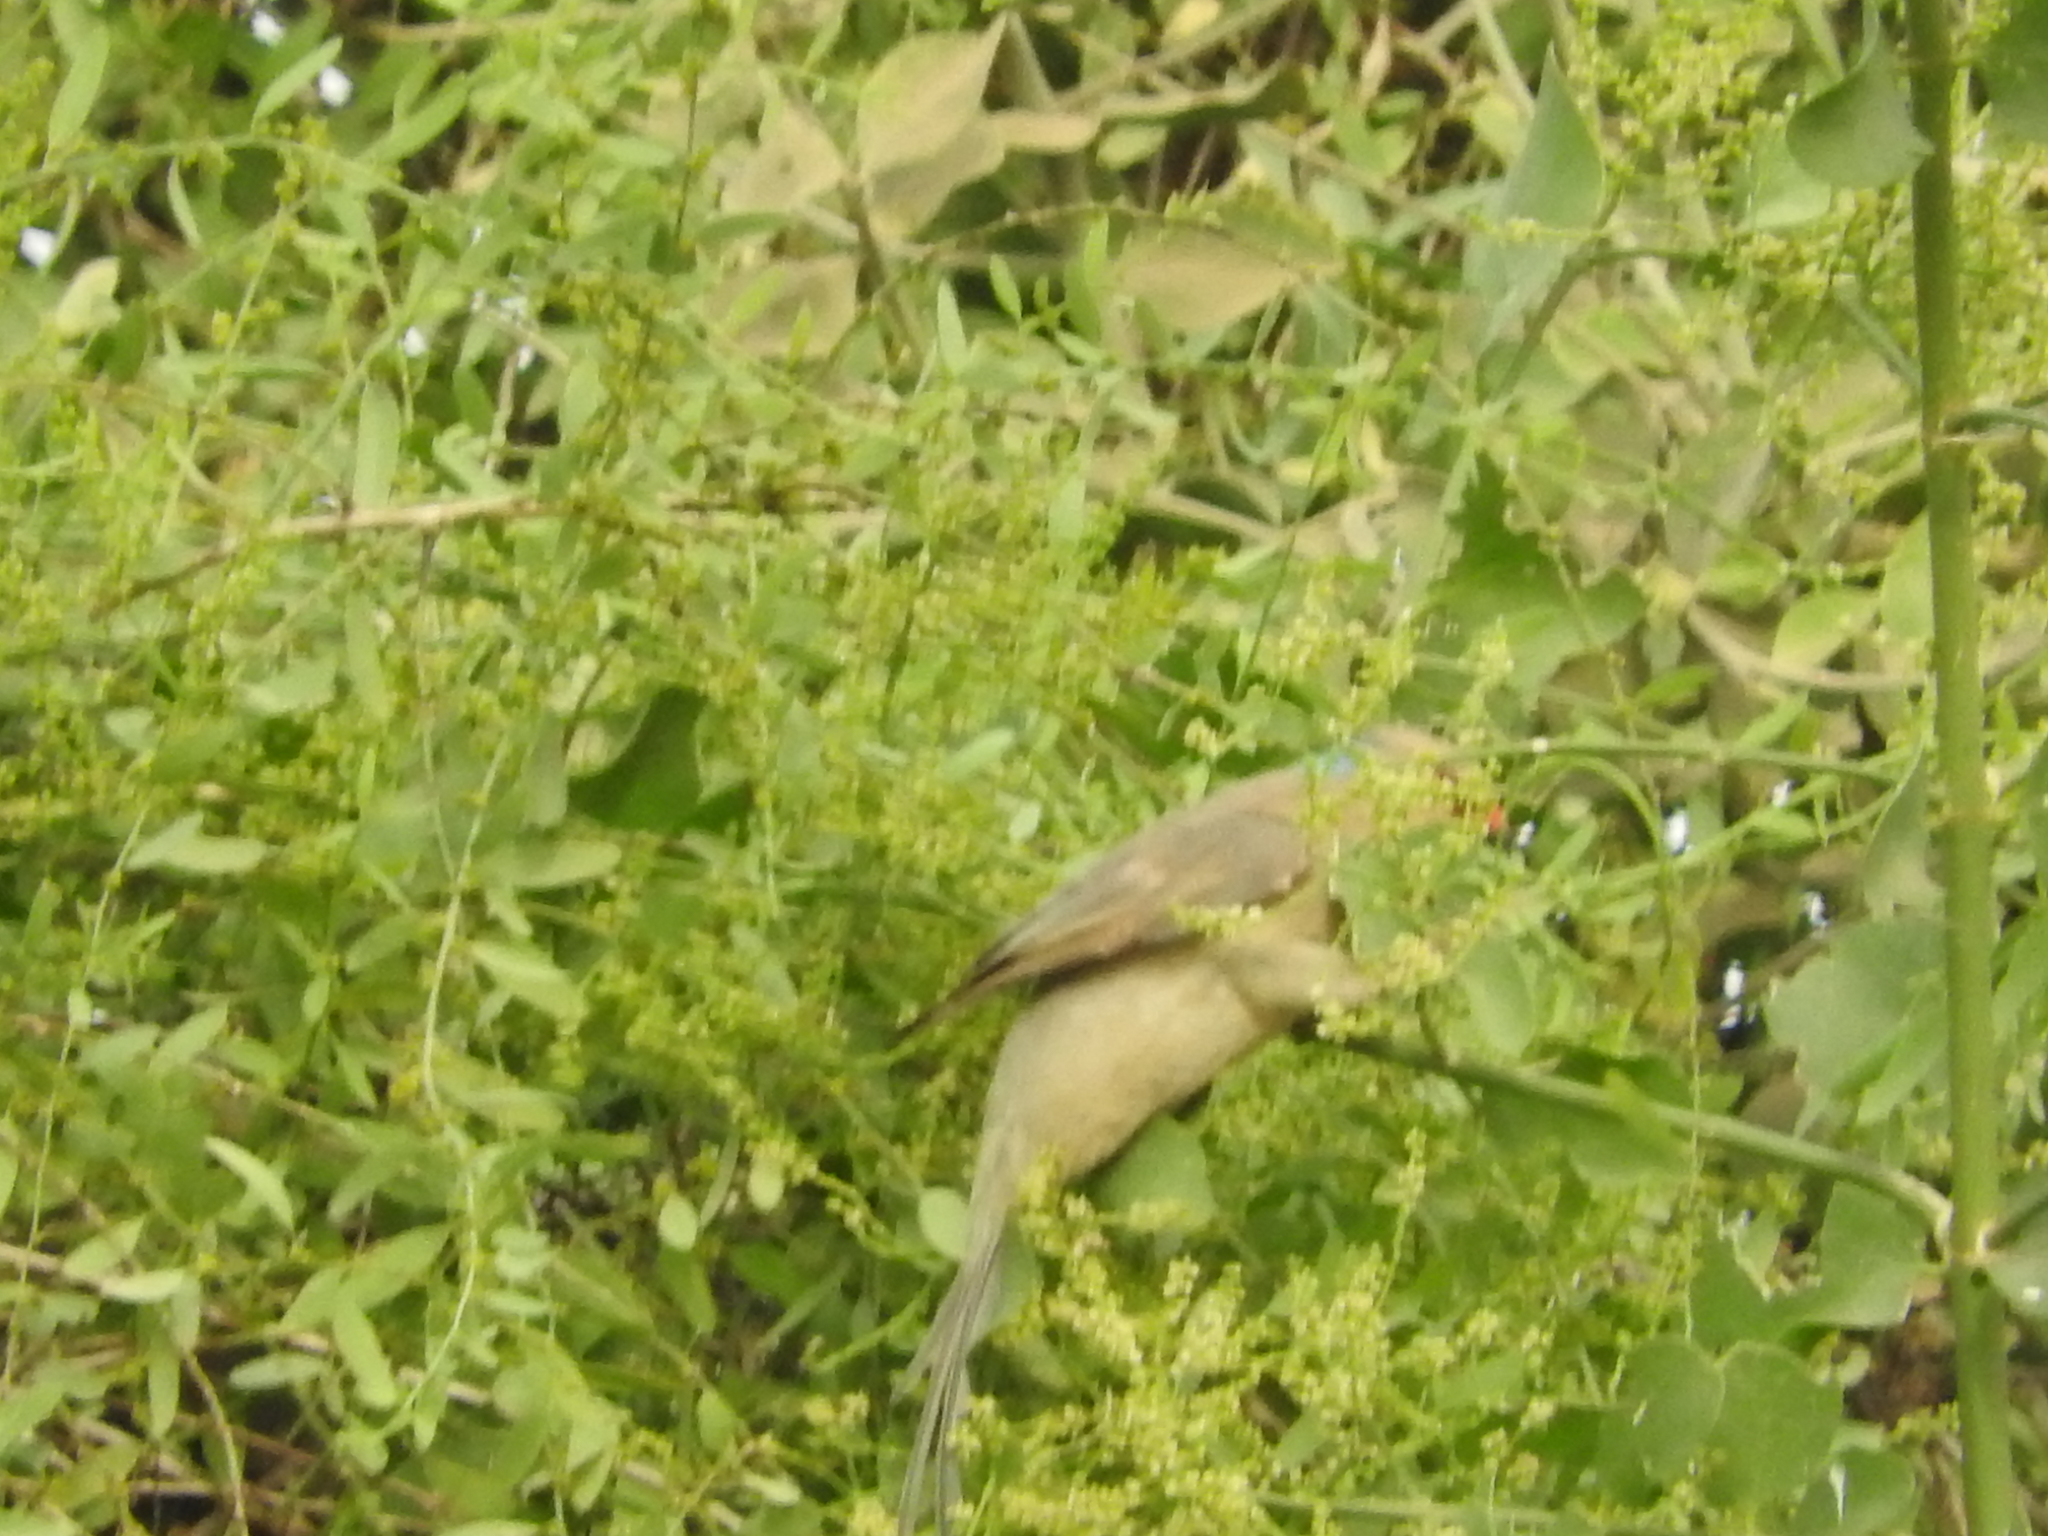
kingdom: Animalia
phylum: Chordata
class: Aves
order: Coliiformes
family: Coliidae
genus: Urocolius
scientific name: Urocolius macrourus
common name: Blue-naped mousebird
